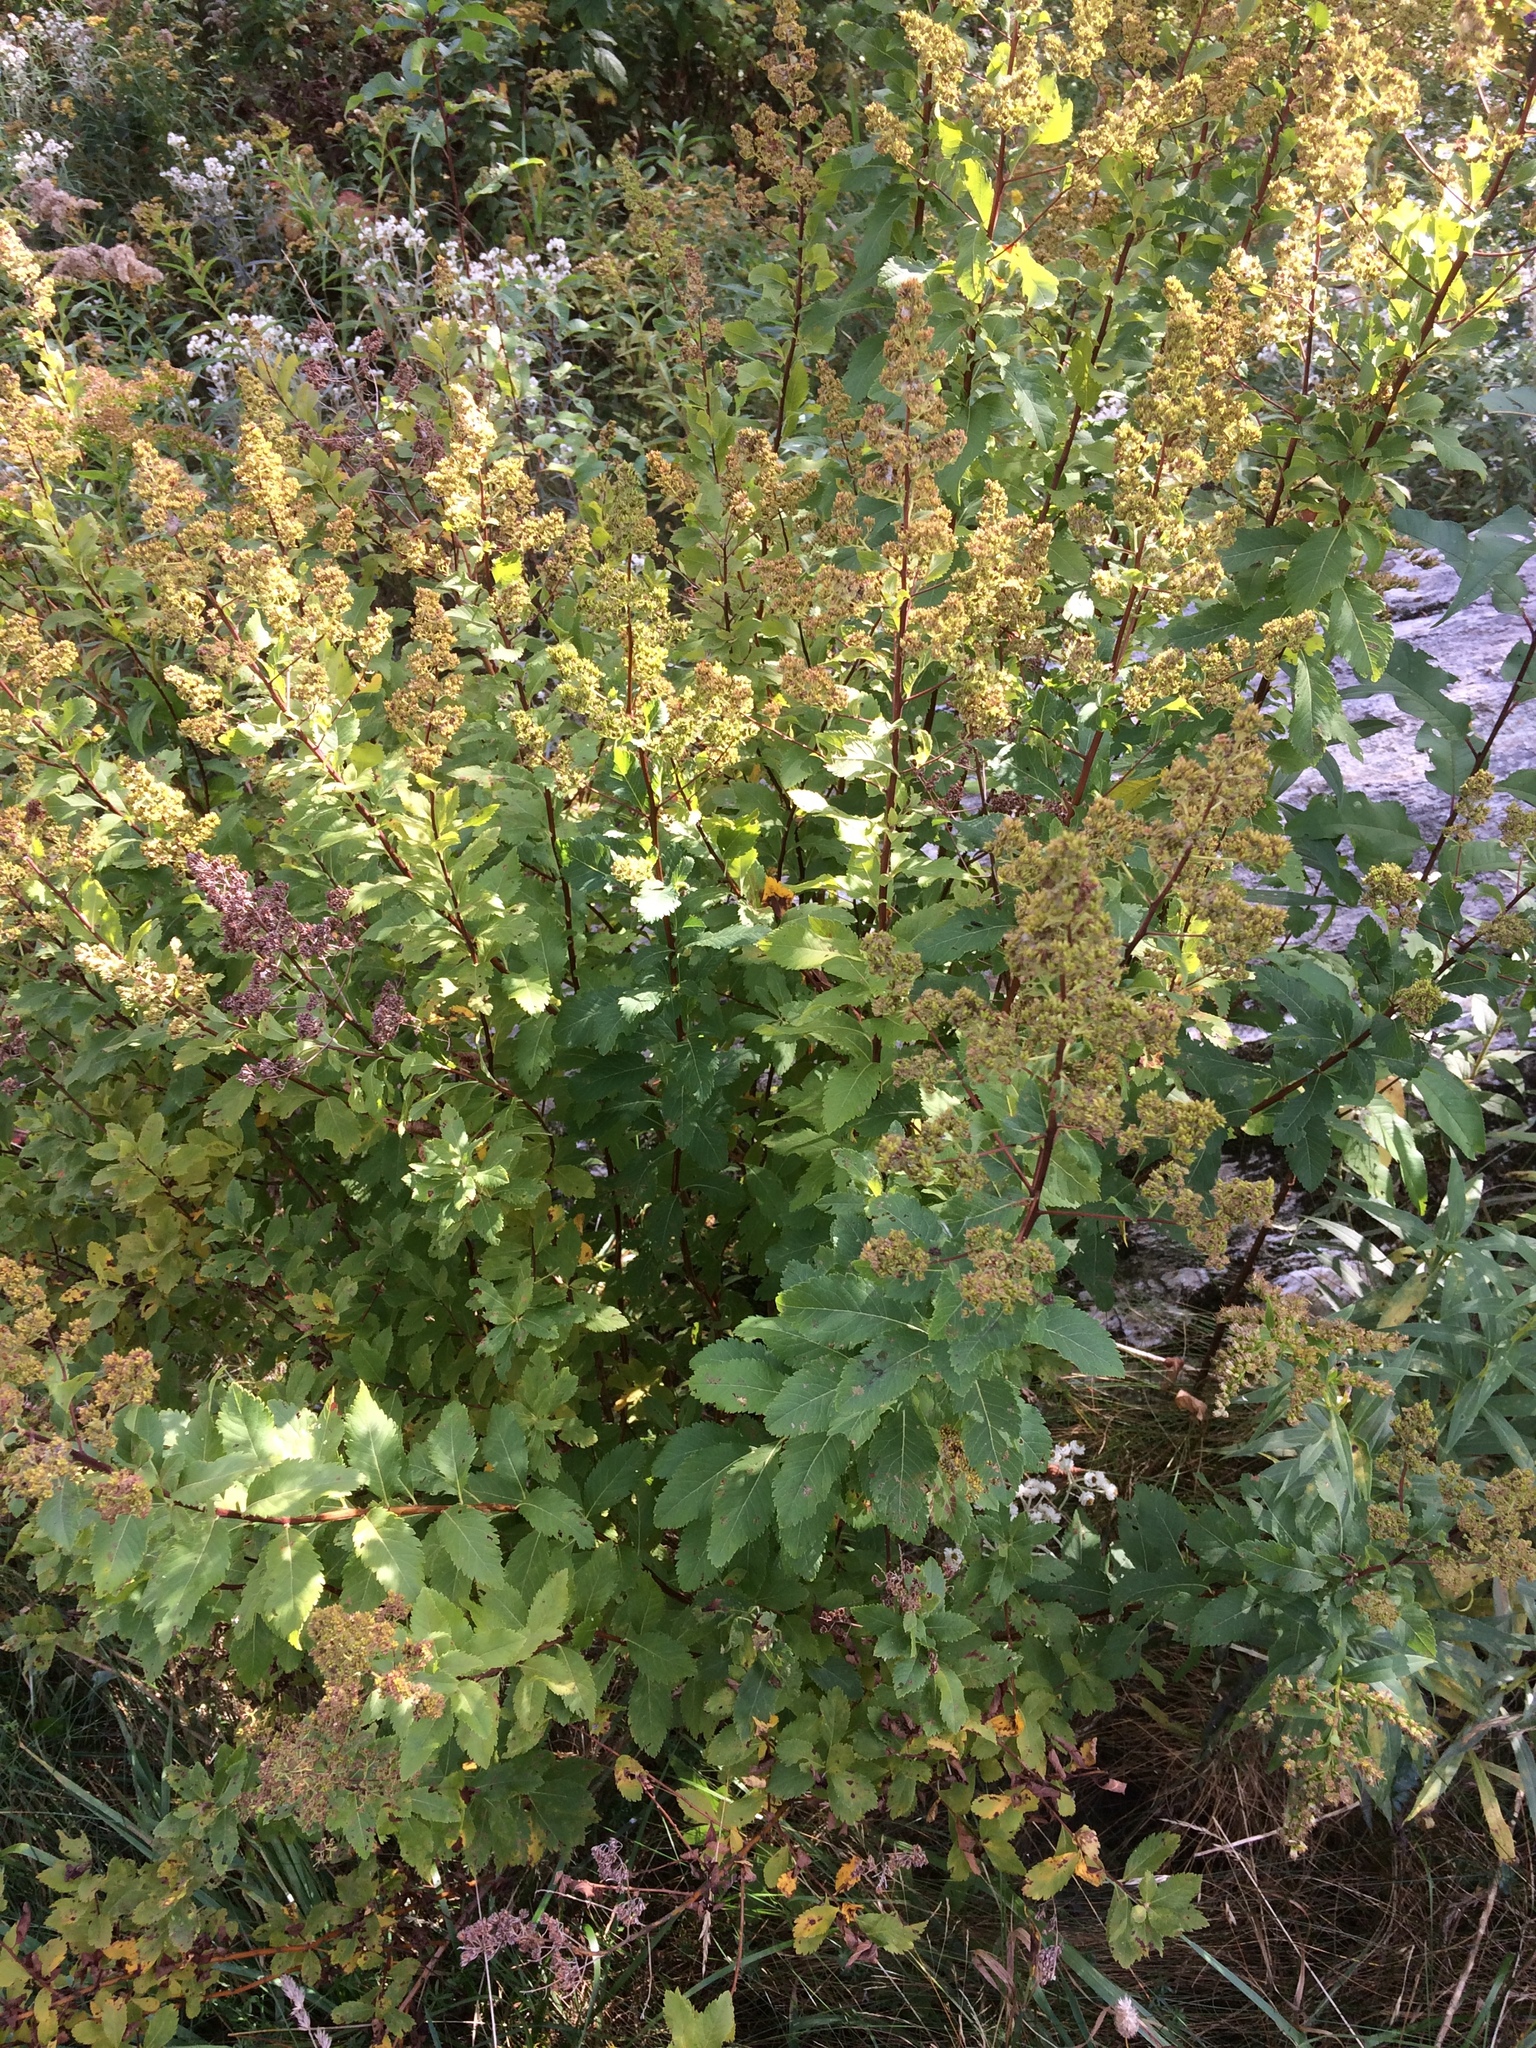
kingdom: Plantae
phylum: Tracheophyta
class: Magnoliopsida
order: Rosales
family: Rosaceae
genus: Spiraea
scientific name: Spiraea alba
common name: Pale bridewort
